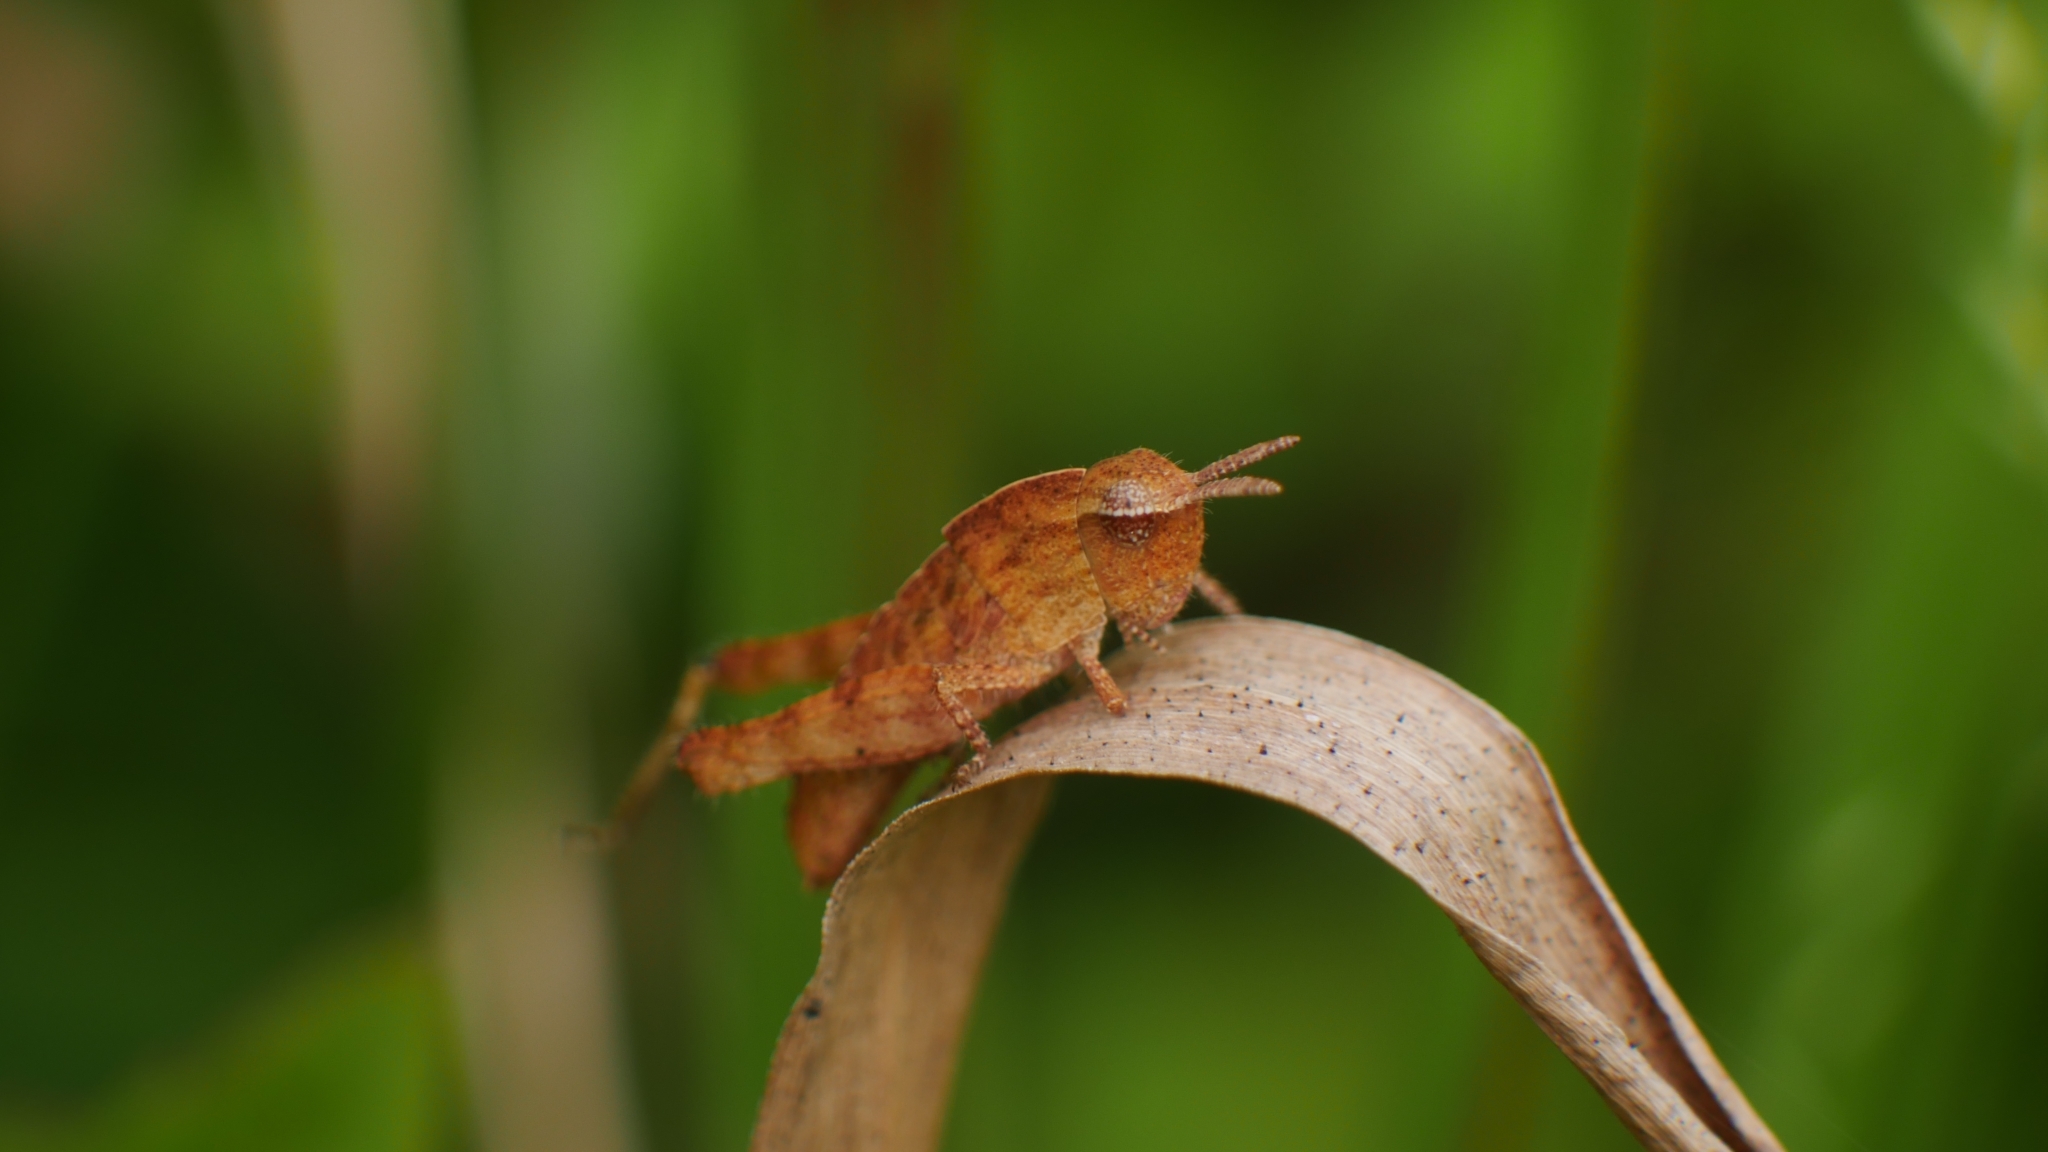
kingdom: Animalia
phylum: Arthropoda
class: Insecta
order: Orthoptera
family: Acrididae
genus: Chortophaga
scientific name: Chortophaga viridifasciata
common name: Green-striped grasshopper
